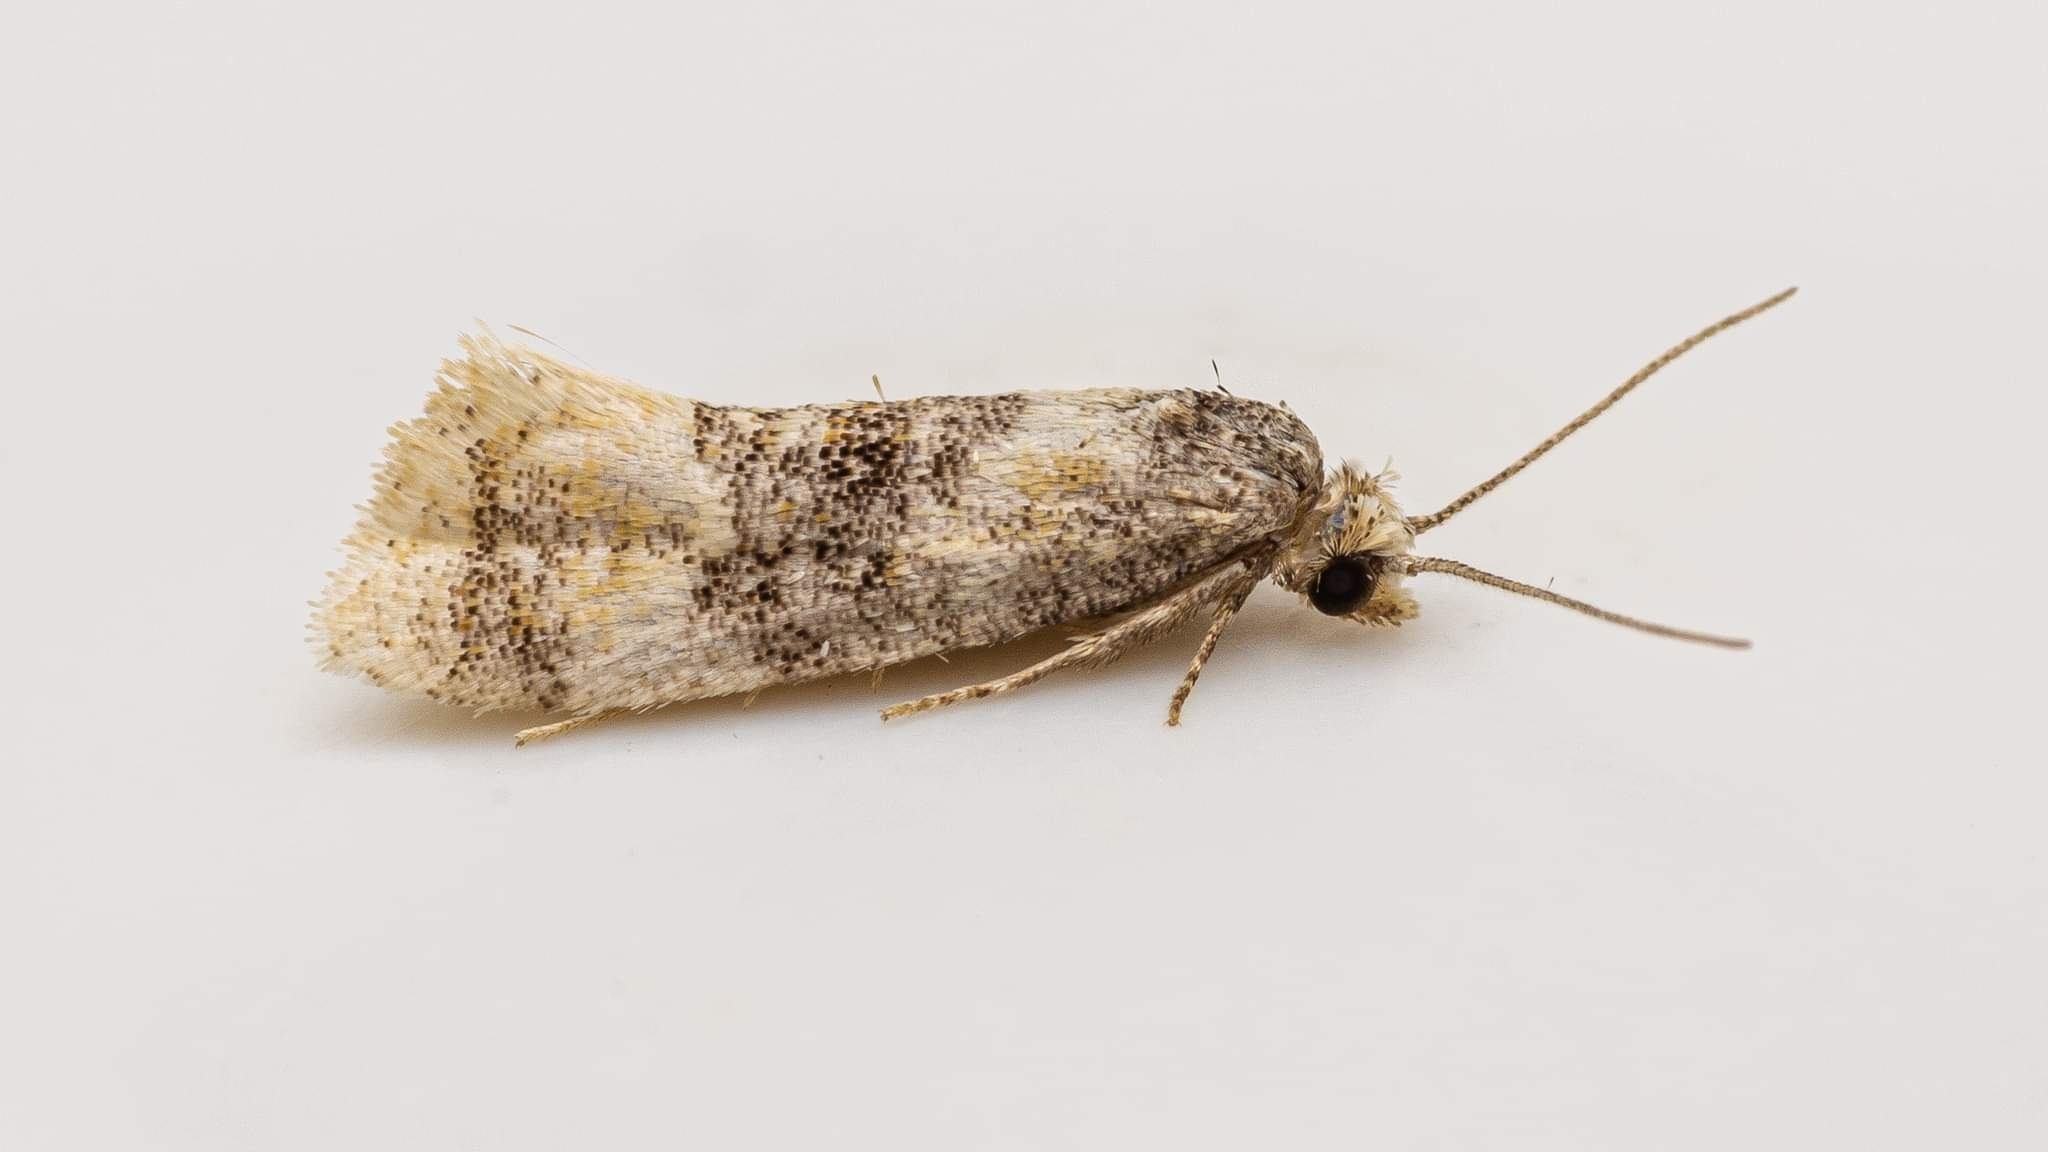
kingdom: Animalia
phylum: Arthropoda
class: Insecta
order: Lepidoptera
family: Tortricidae
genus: Thyraylia
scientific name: Thyraylia nana
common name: Birch conch
